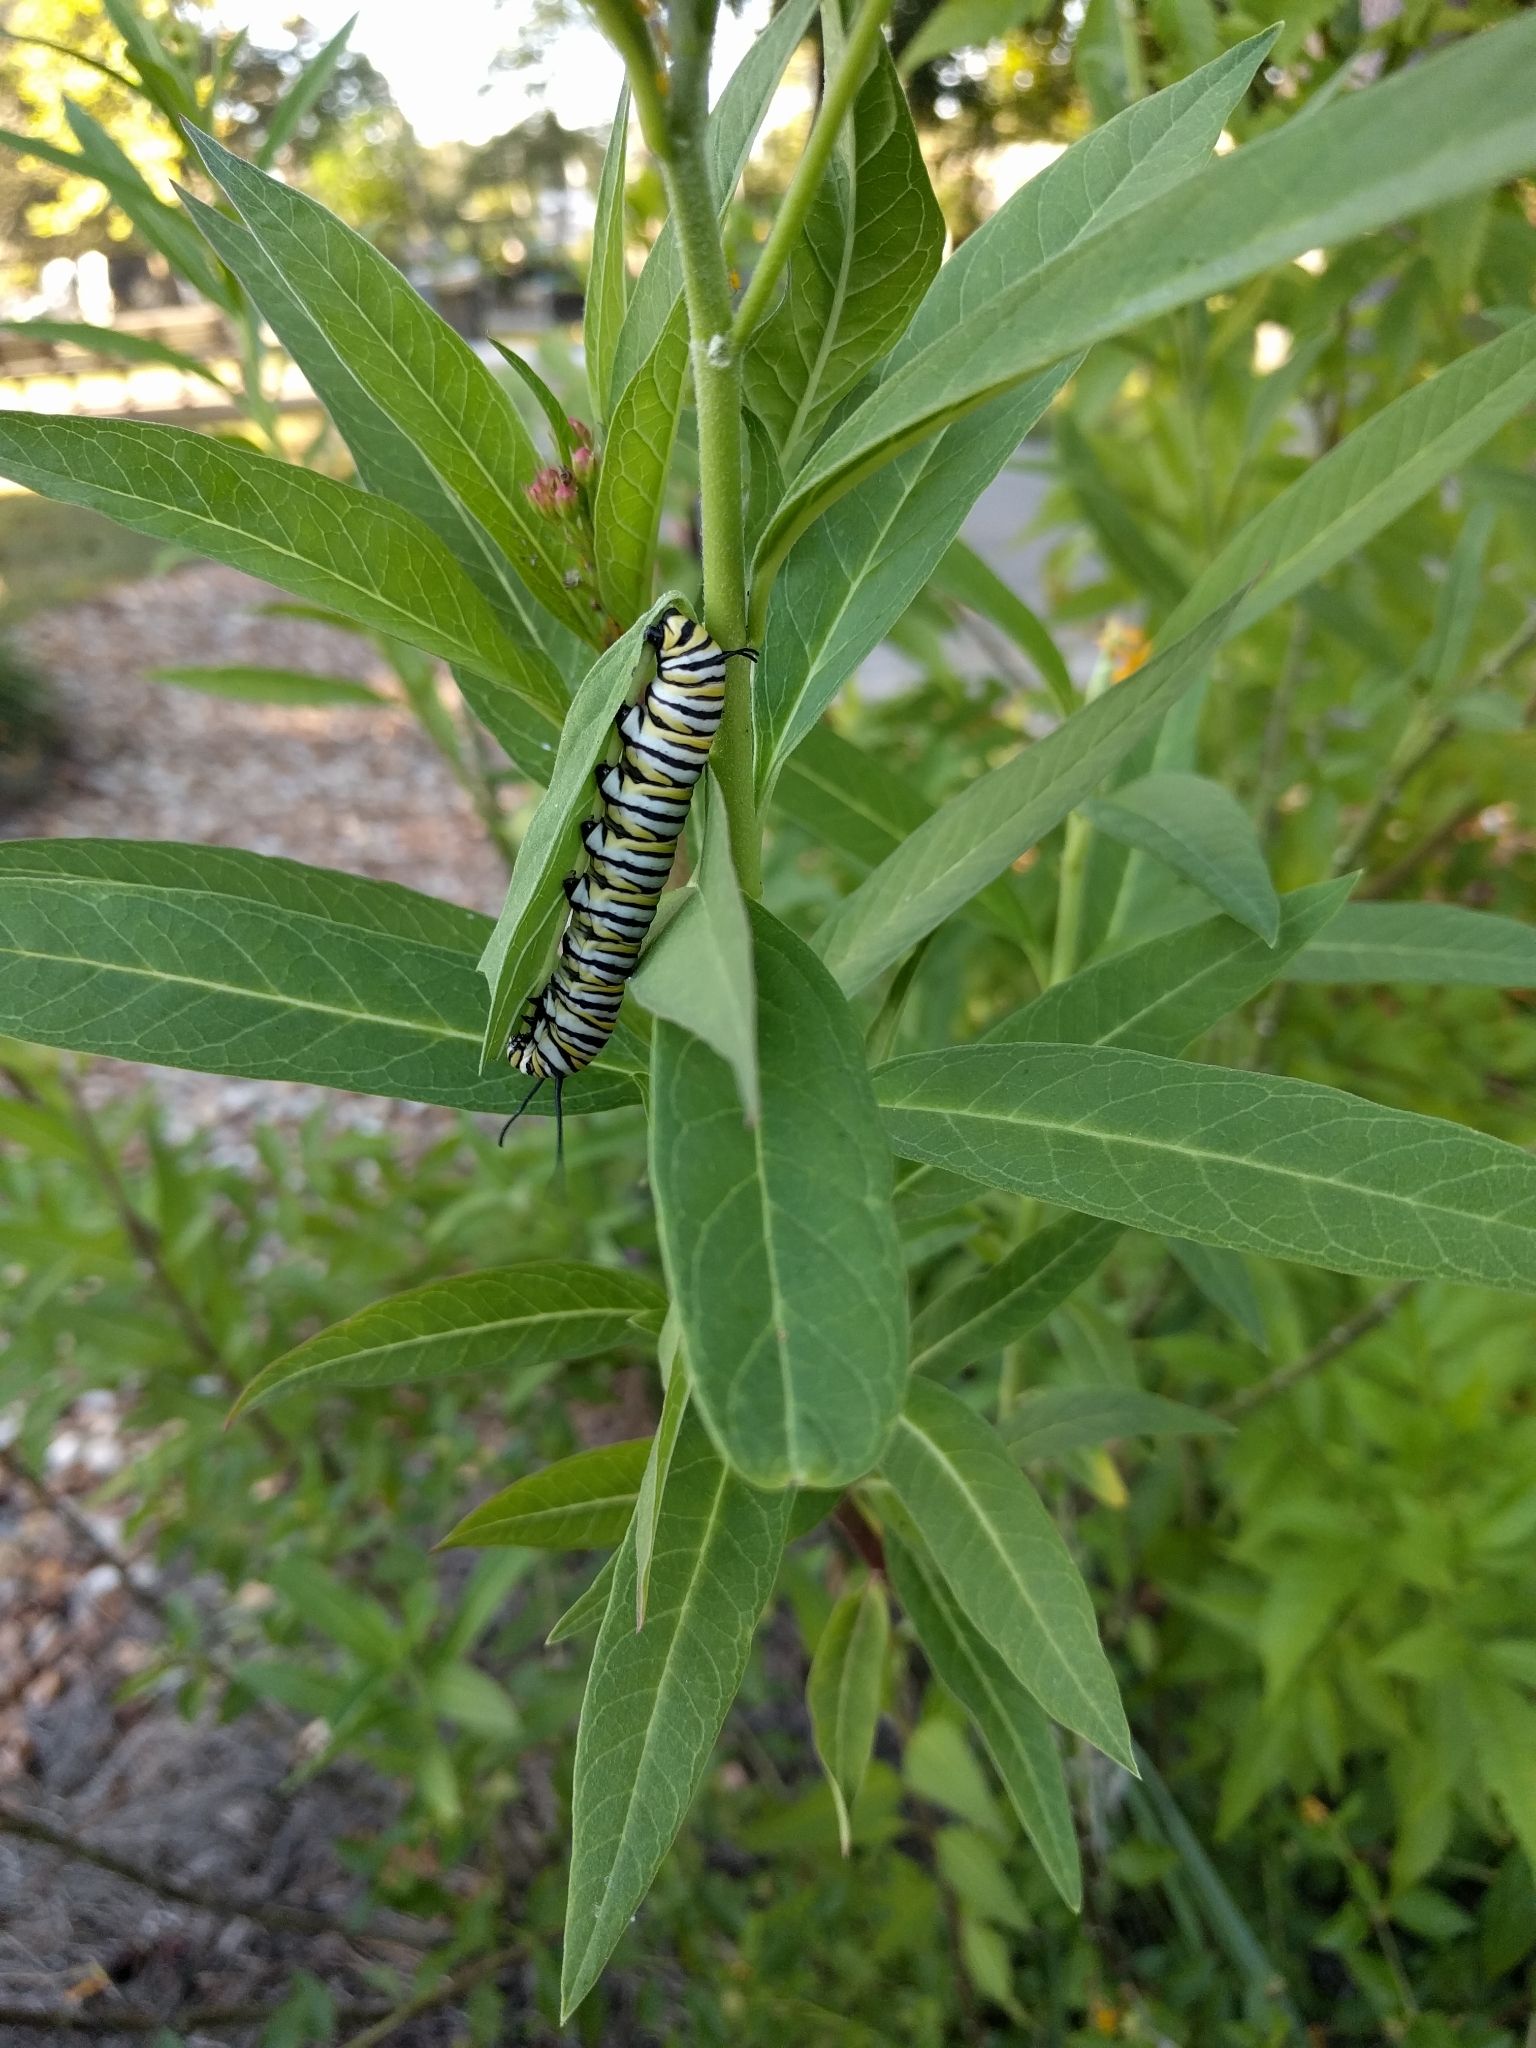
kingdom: Animalia
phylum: Arthropoda
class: Insecta
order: Lepidoptera
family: Nymphalidae
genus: Danaus
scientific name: Danaus plexippus
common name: Monarch
